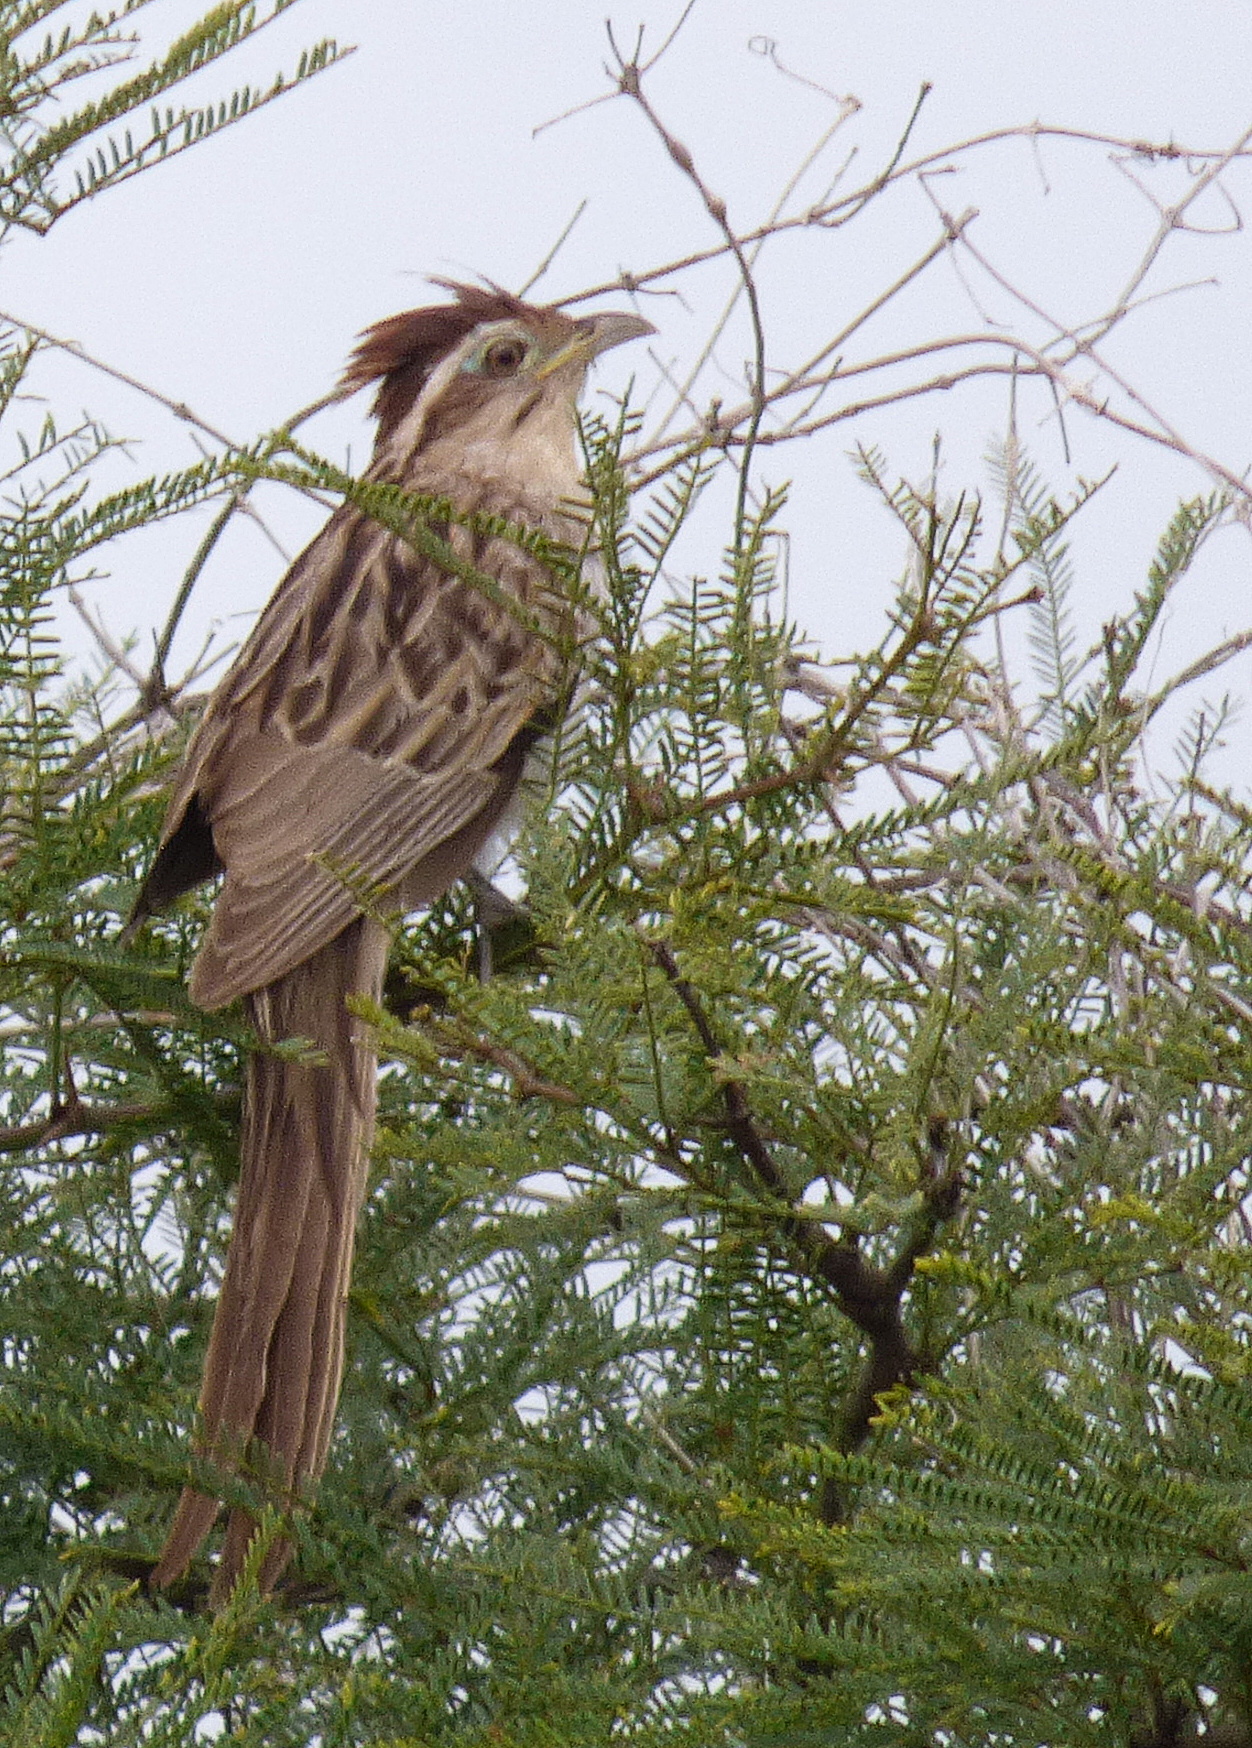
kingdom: Animalia
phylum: Chordata
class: Aves
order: Cuculiformes
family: Cuculidae
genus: Tapera
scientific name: Tapera naevia
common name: Striped cuckoo
